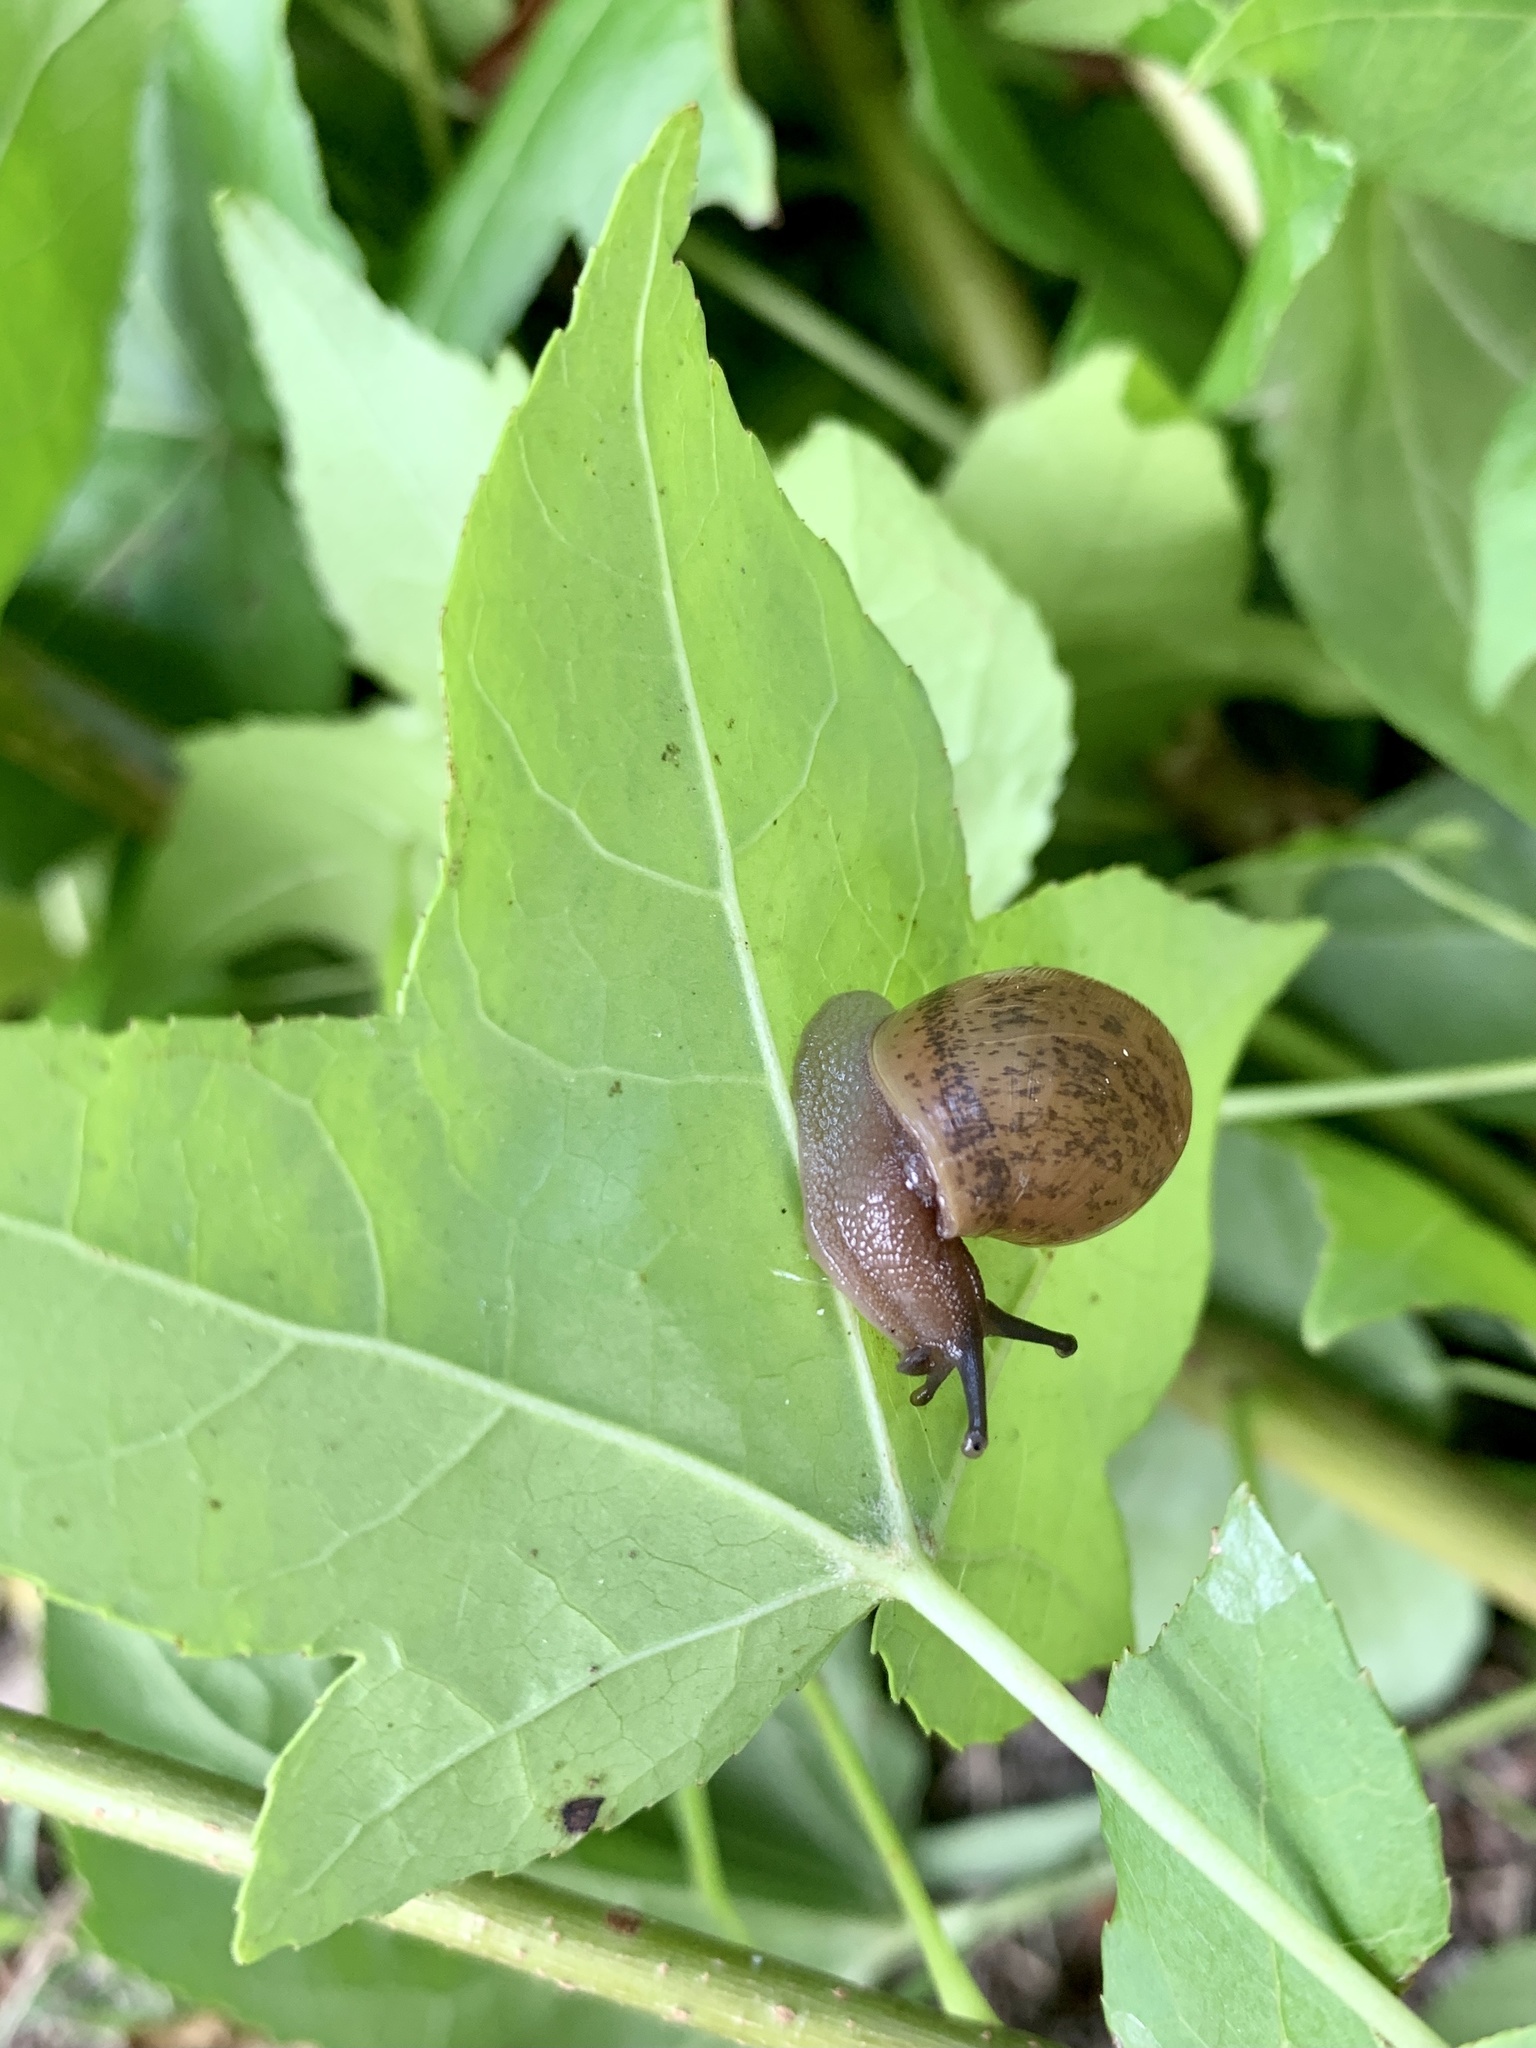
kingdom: Animalia
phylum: Mollusca
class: Gastropoda
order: Stylommatophora
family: Spiraxidae
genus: Euglandina
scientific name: Euglandina rosea
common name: Rosy wolfsnail
